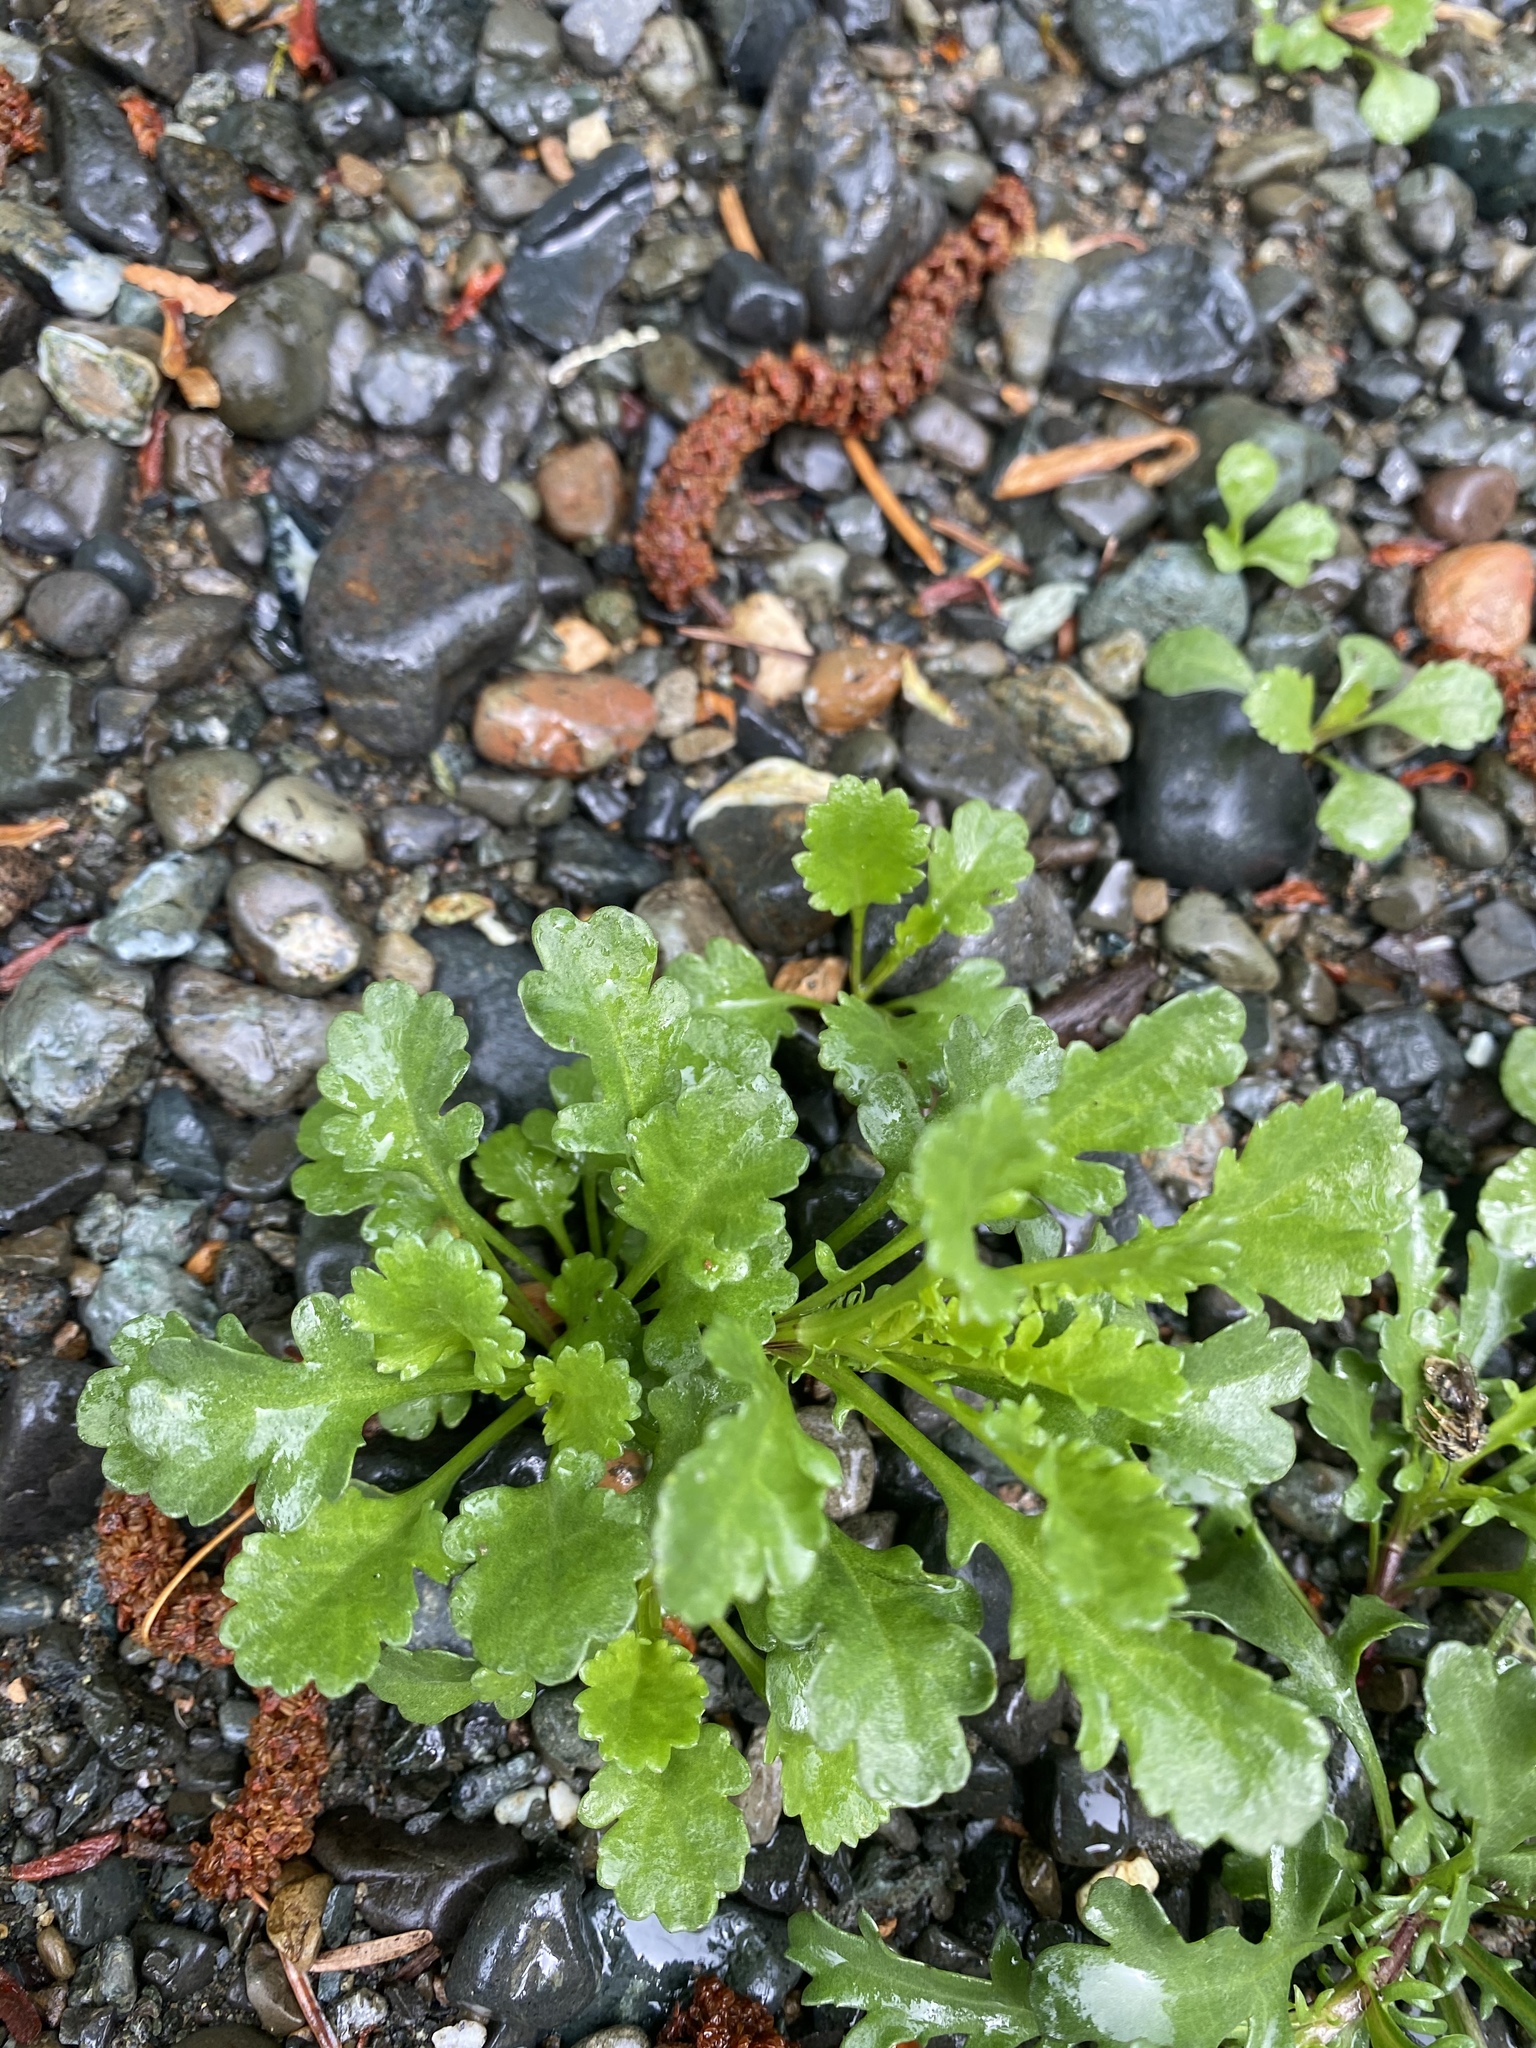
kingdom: Plantae
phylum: Tracheophyta
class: Magnoliopsida
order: Asterales
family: Asteraceae
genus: Leucanthemum
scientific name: Leucanthemum vulgare
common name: Oxeye daisy
